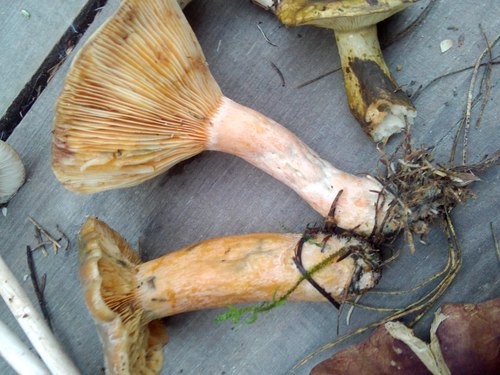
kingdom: Fungi
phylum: Basidiomycota
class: Agaricomycetes
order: Russulales
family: Russulaceae
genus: Lactarius
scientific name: Lactarius deterrimus
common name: False saffron milkcap
